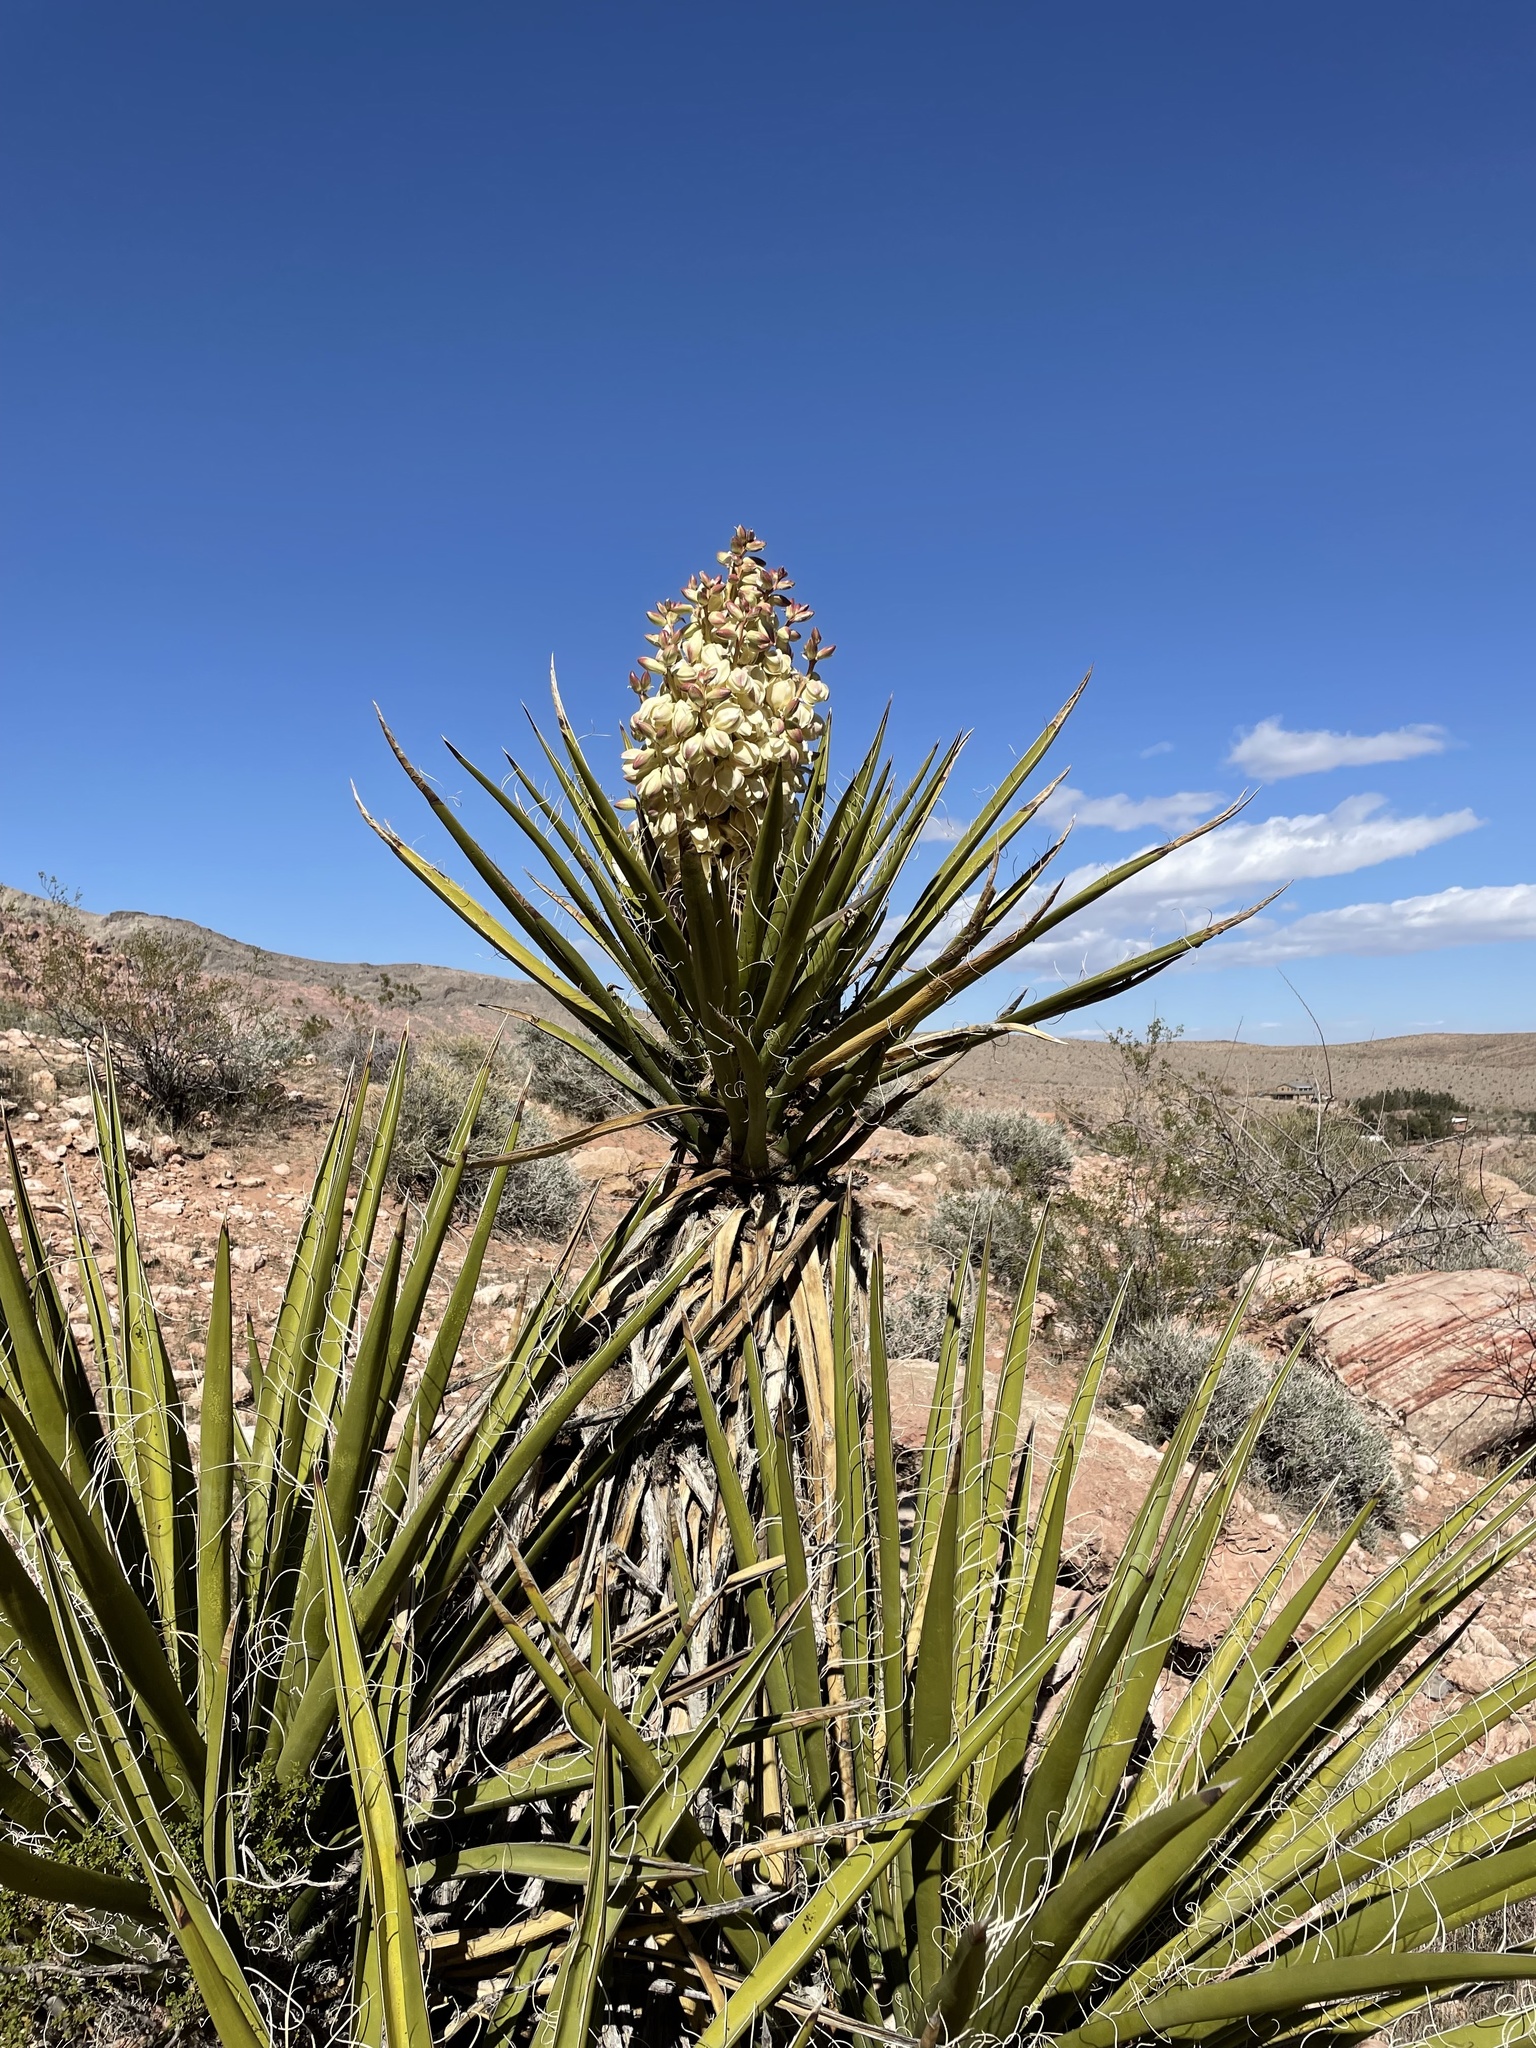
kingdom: Plantae
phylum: Tracheophyta
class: Liliopsida
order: Asparagales
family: Asparagaceae
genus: Yucca
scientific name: Yucca schidigera
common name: Mojave yucca
